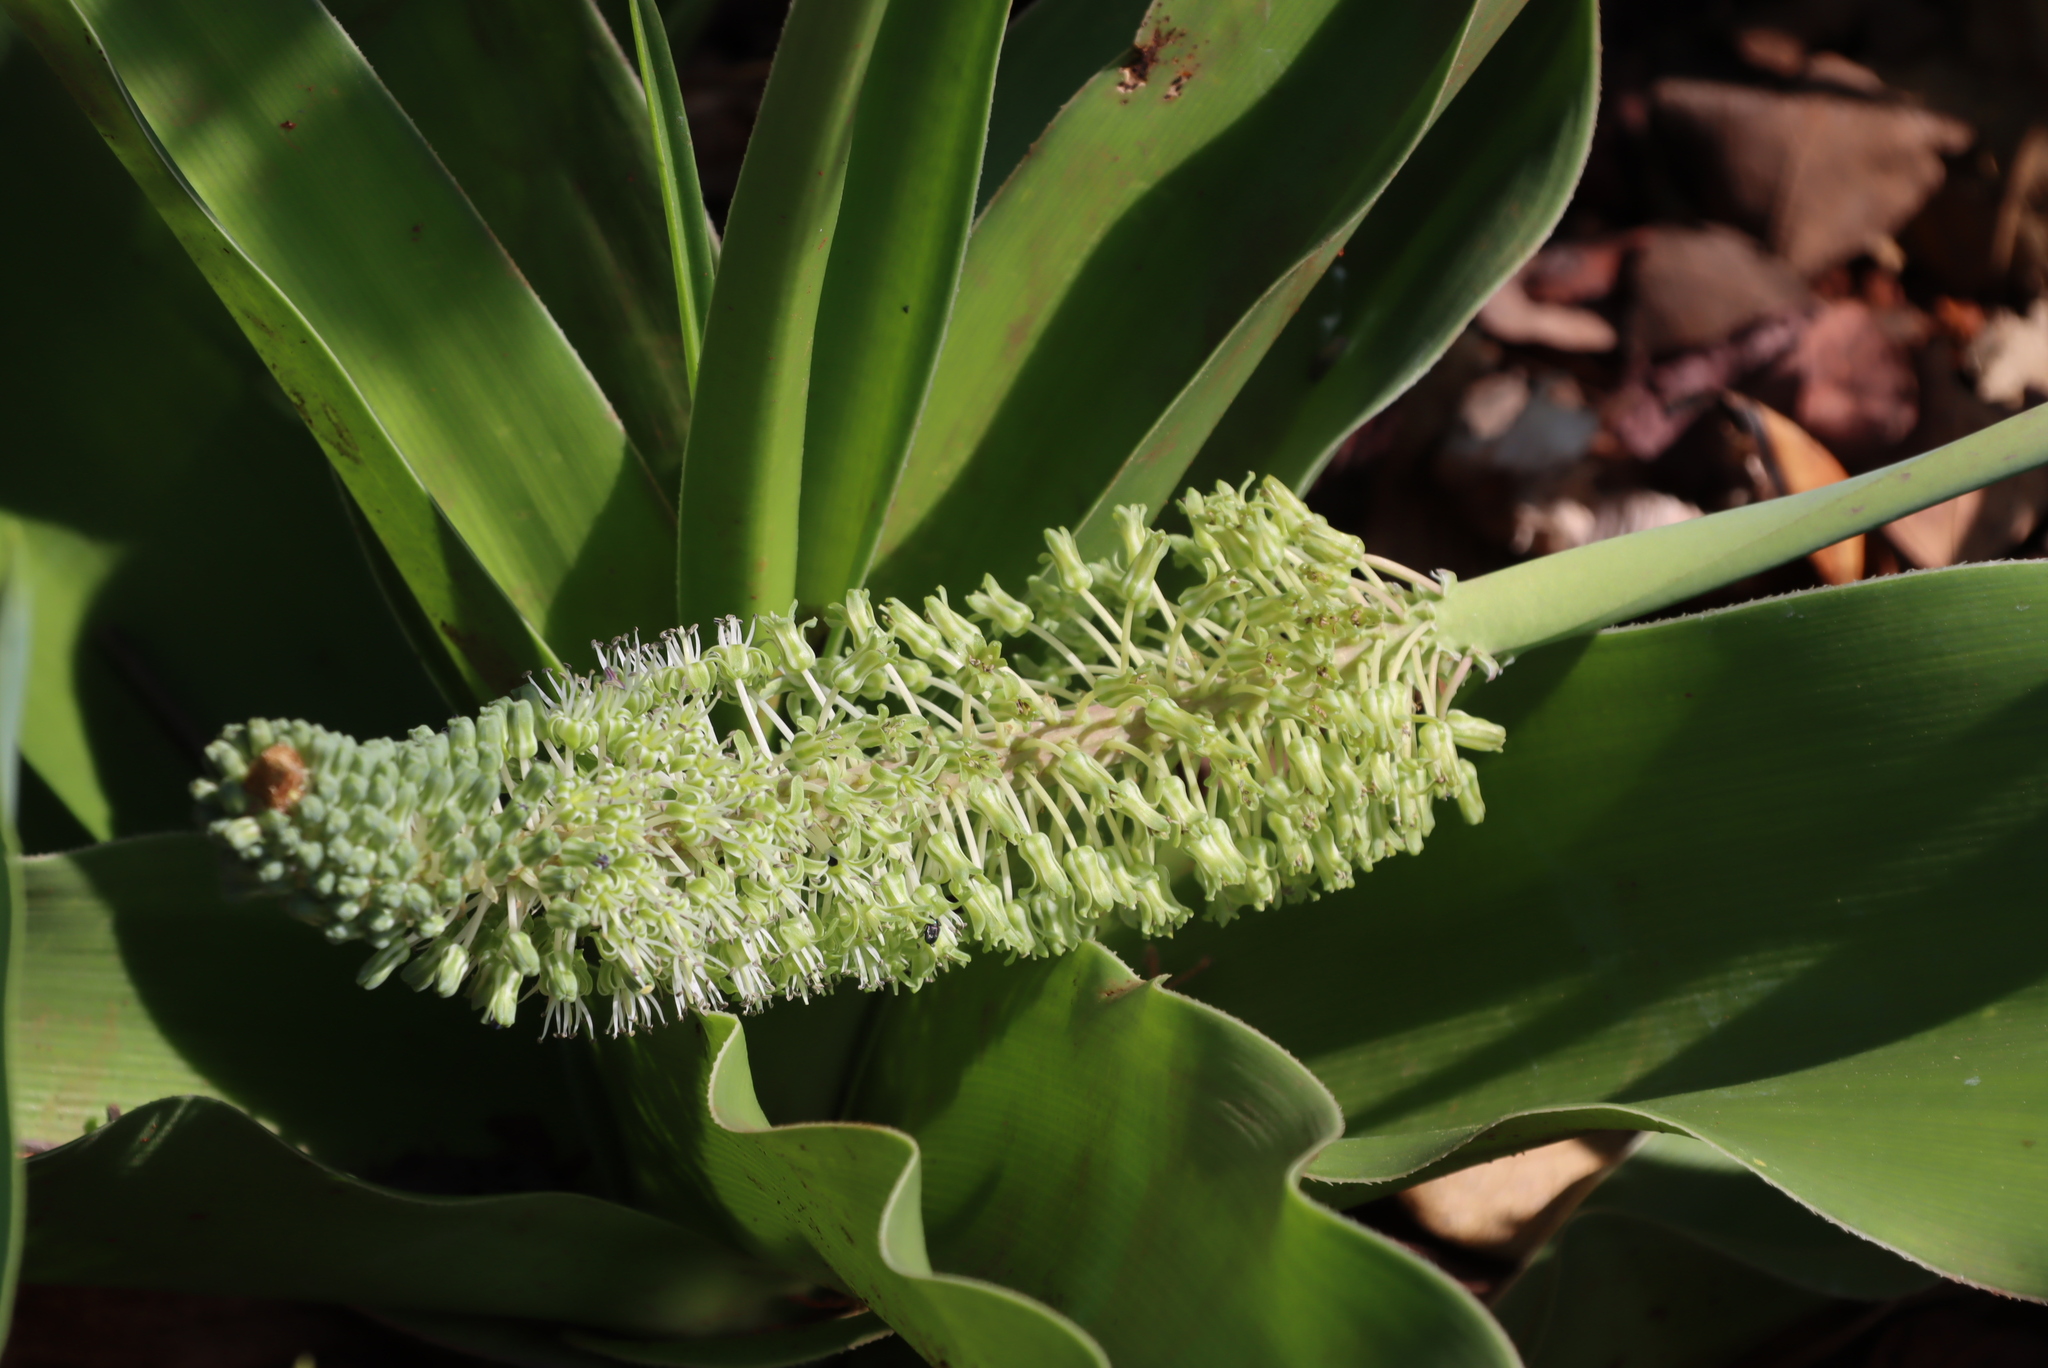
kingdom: Plantae
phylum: Tracheophyta
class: Liliopsida
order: Asparagales
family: Asparagaceae
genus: Ledebouria
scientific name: Ledebouria zebrina
